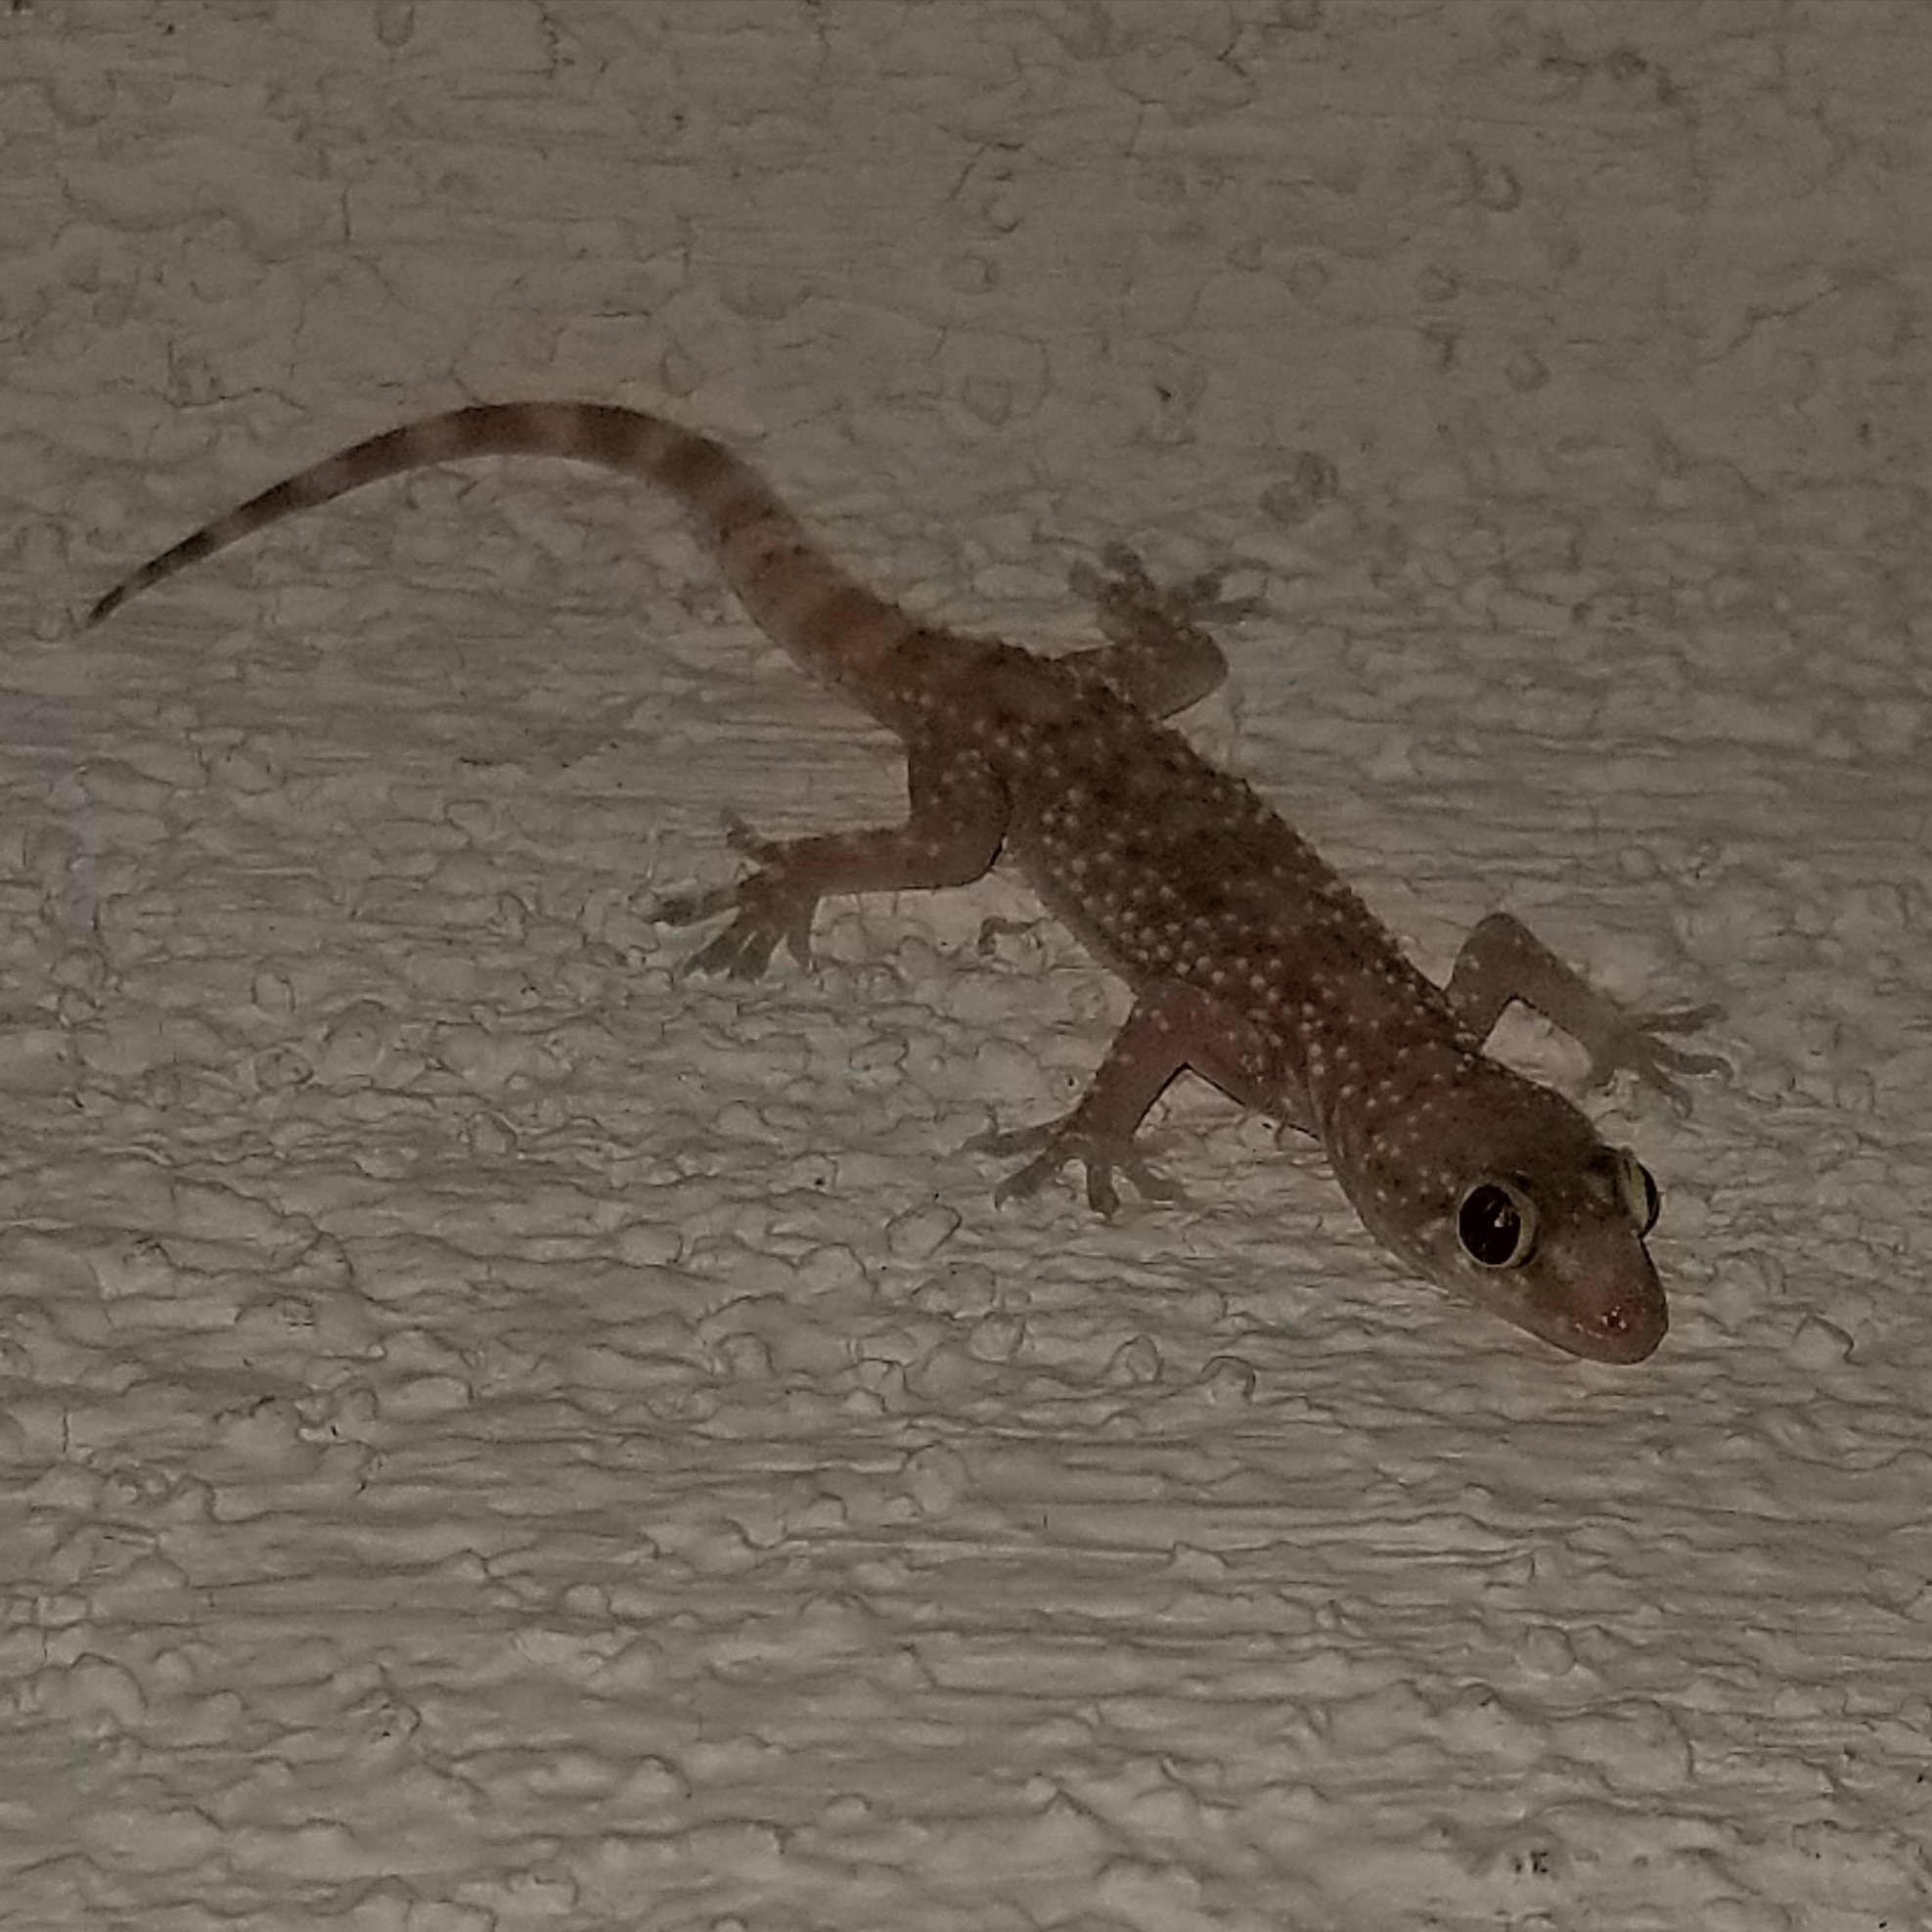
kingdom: Animalia
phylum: Chordata
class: Squamata
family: Gekkonidae
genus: Hemidactylus
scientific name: Hemidactylus turcicus
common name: Turkish gecko
